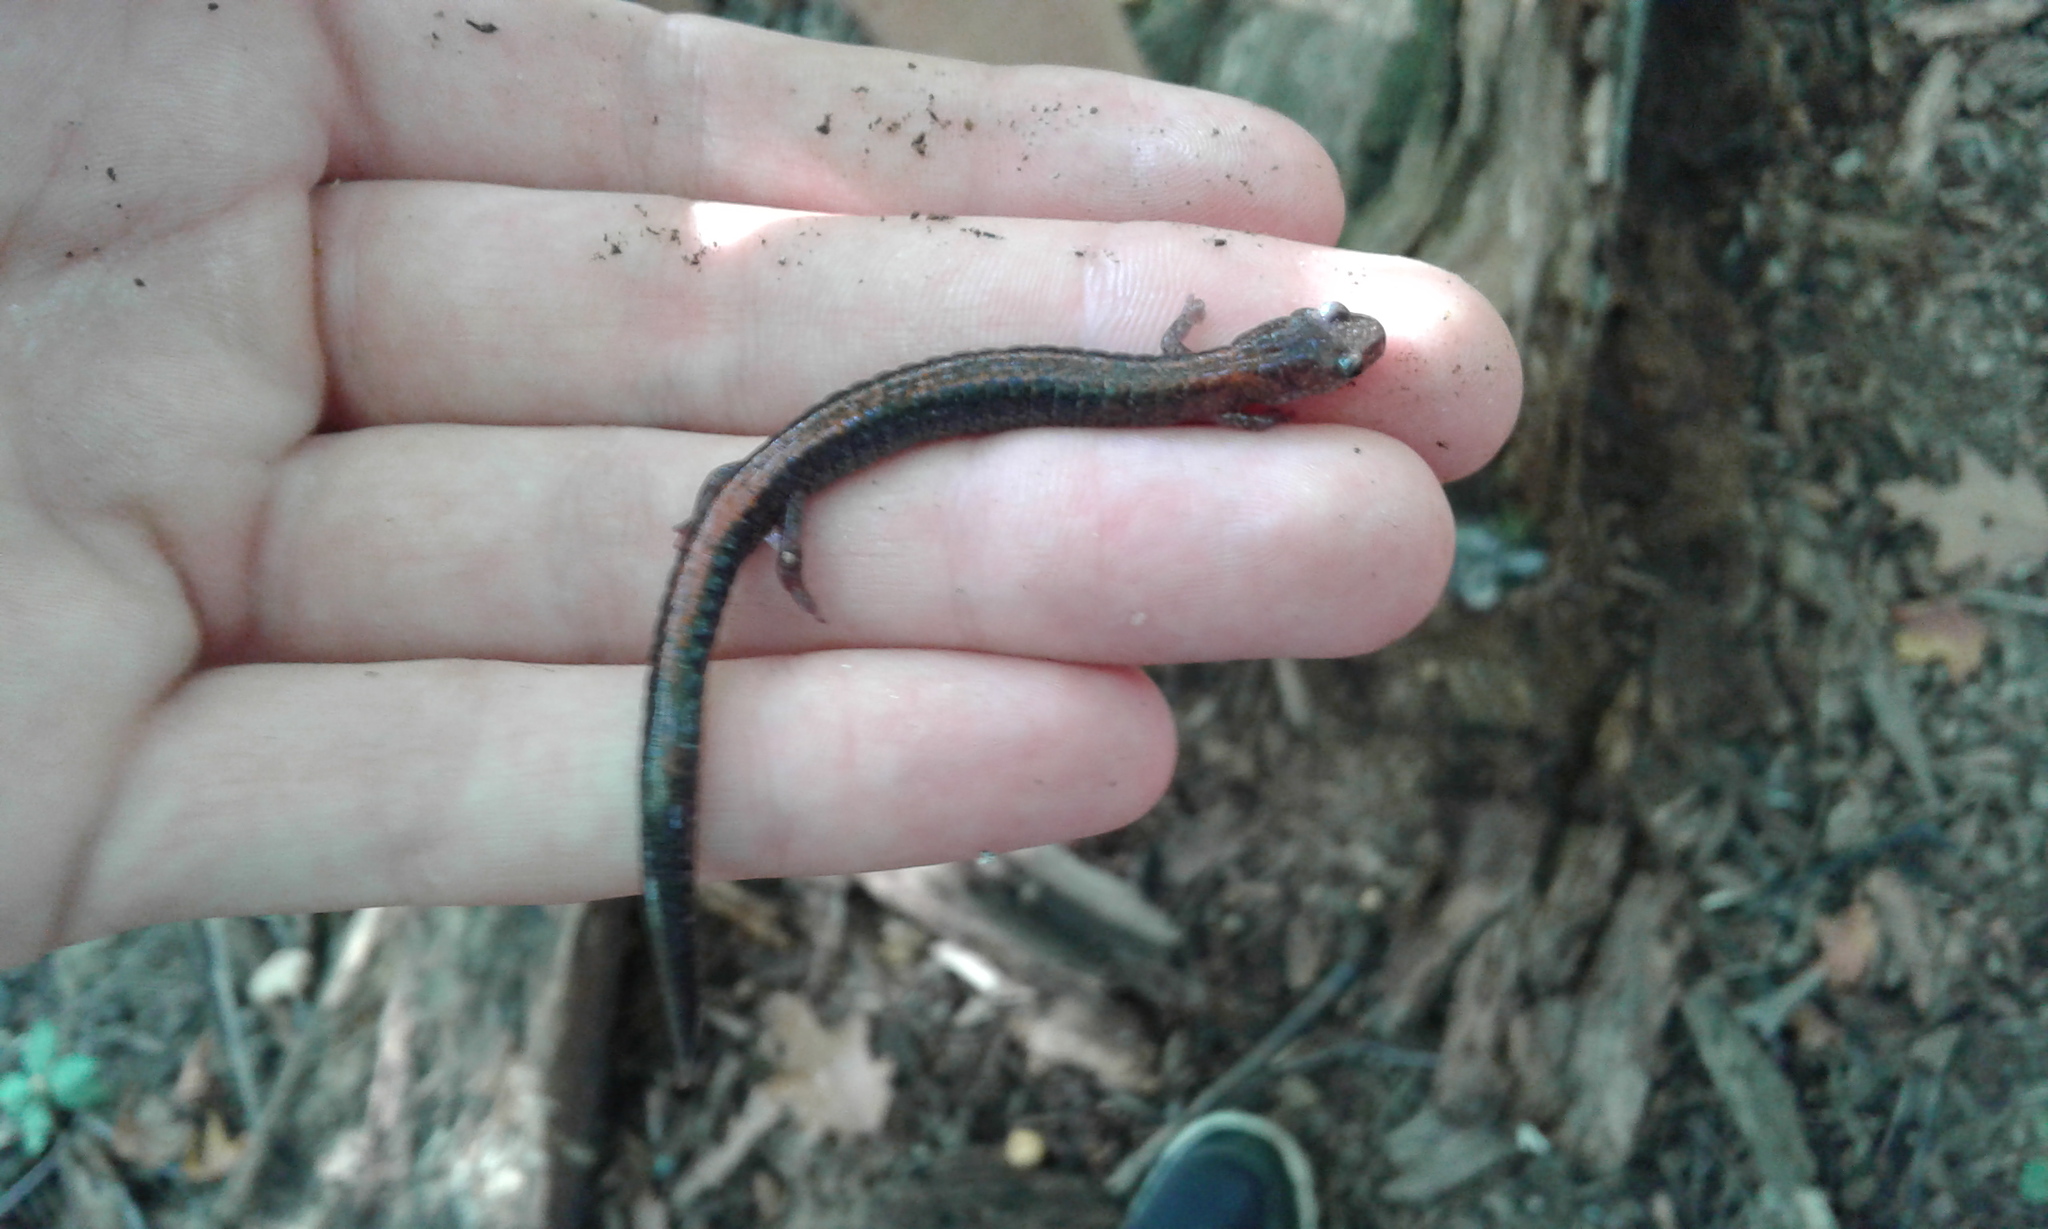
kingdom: Animalia
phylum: Chordata
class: Amphibia
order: Caudata
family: Plethodontidae
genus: Plethodon
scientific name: Plethodon cinereus
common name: Redback salamander
